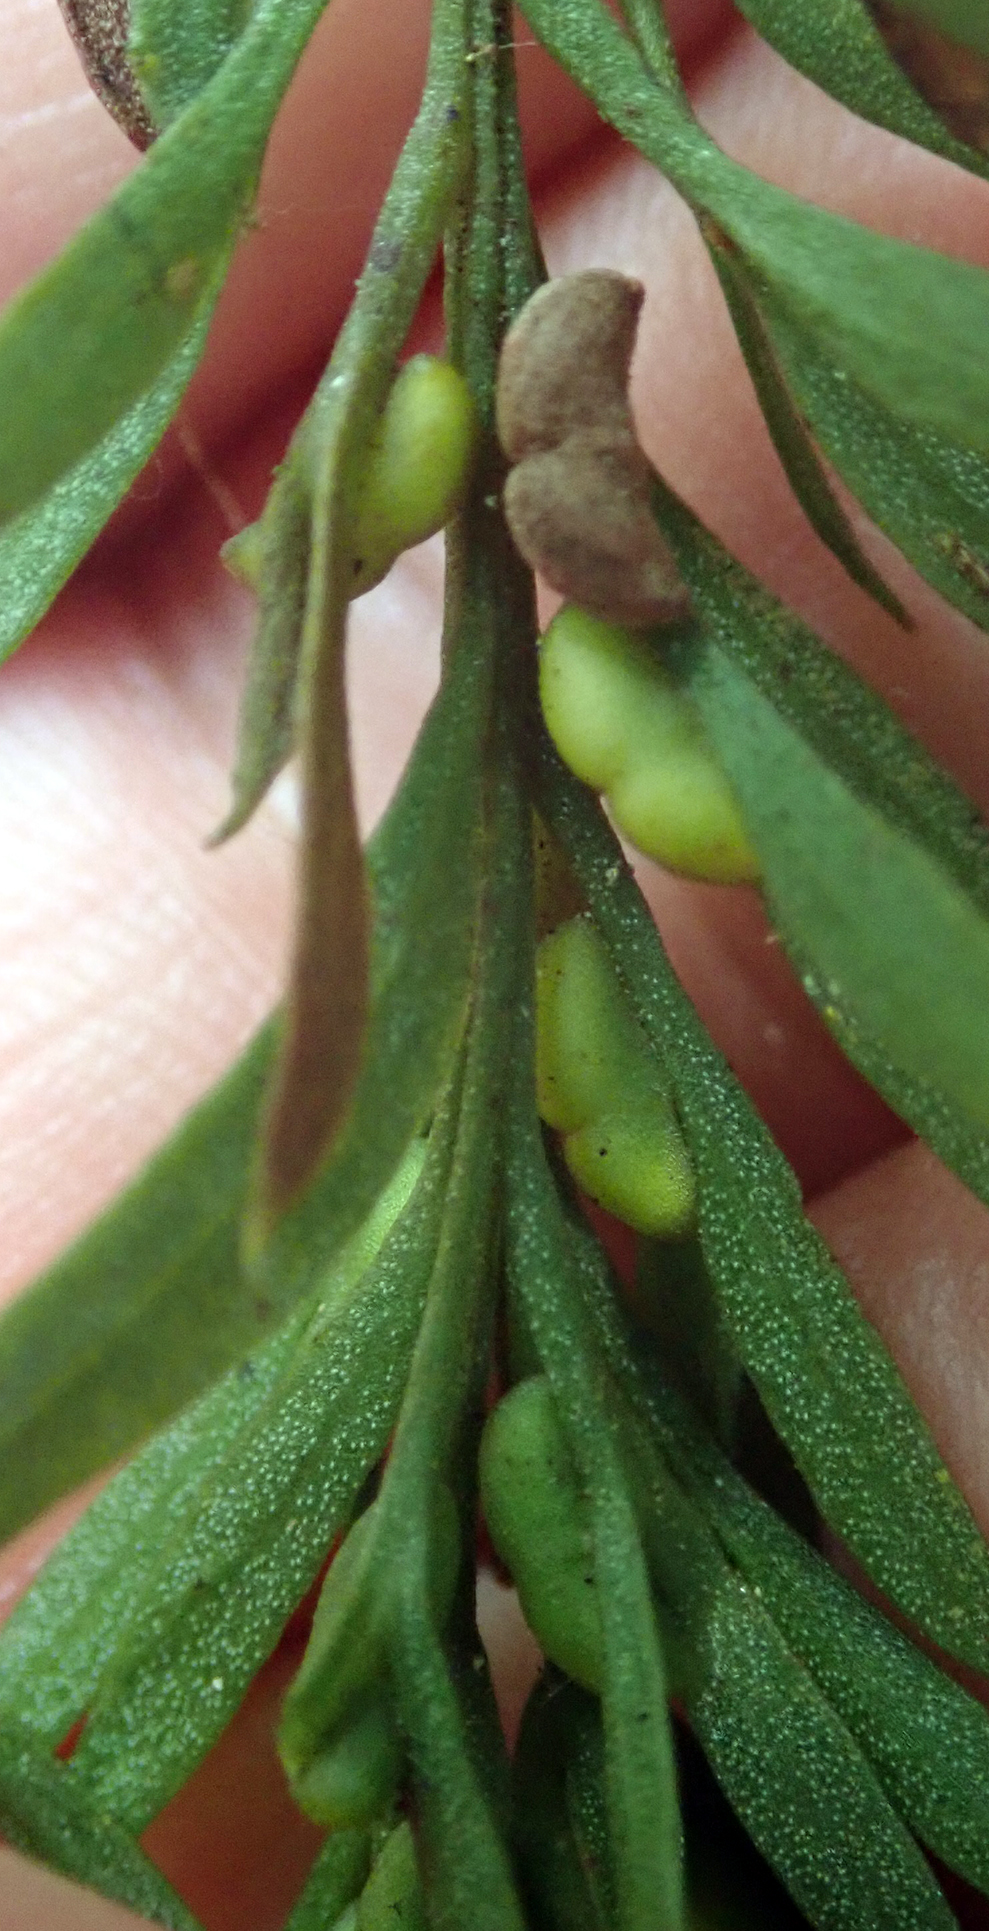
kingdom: Plantae
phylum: Tracheophyta
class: Polypodiopsida
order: Psilotales
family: Psilotaceae
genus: Tmesipteris
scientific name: Tmesipteris elongata
